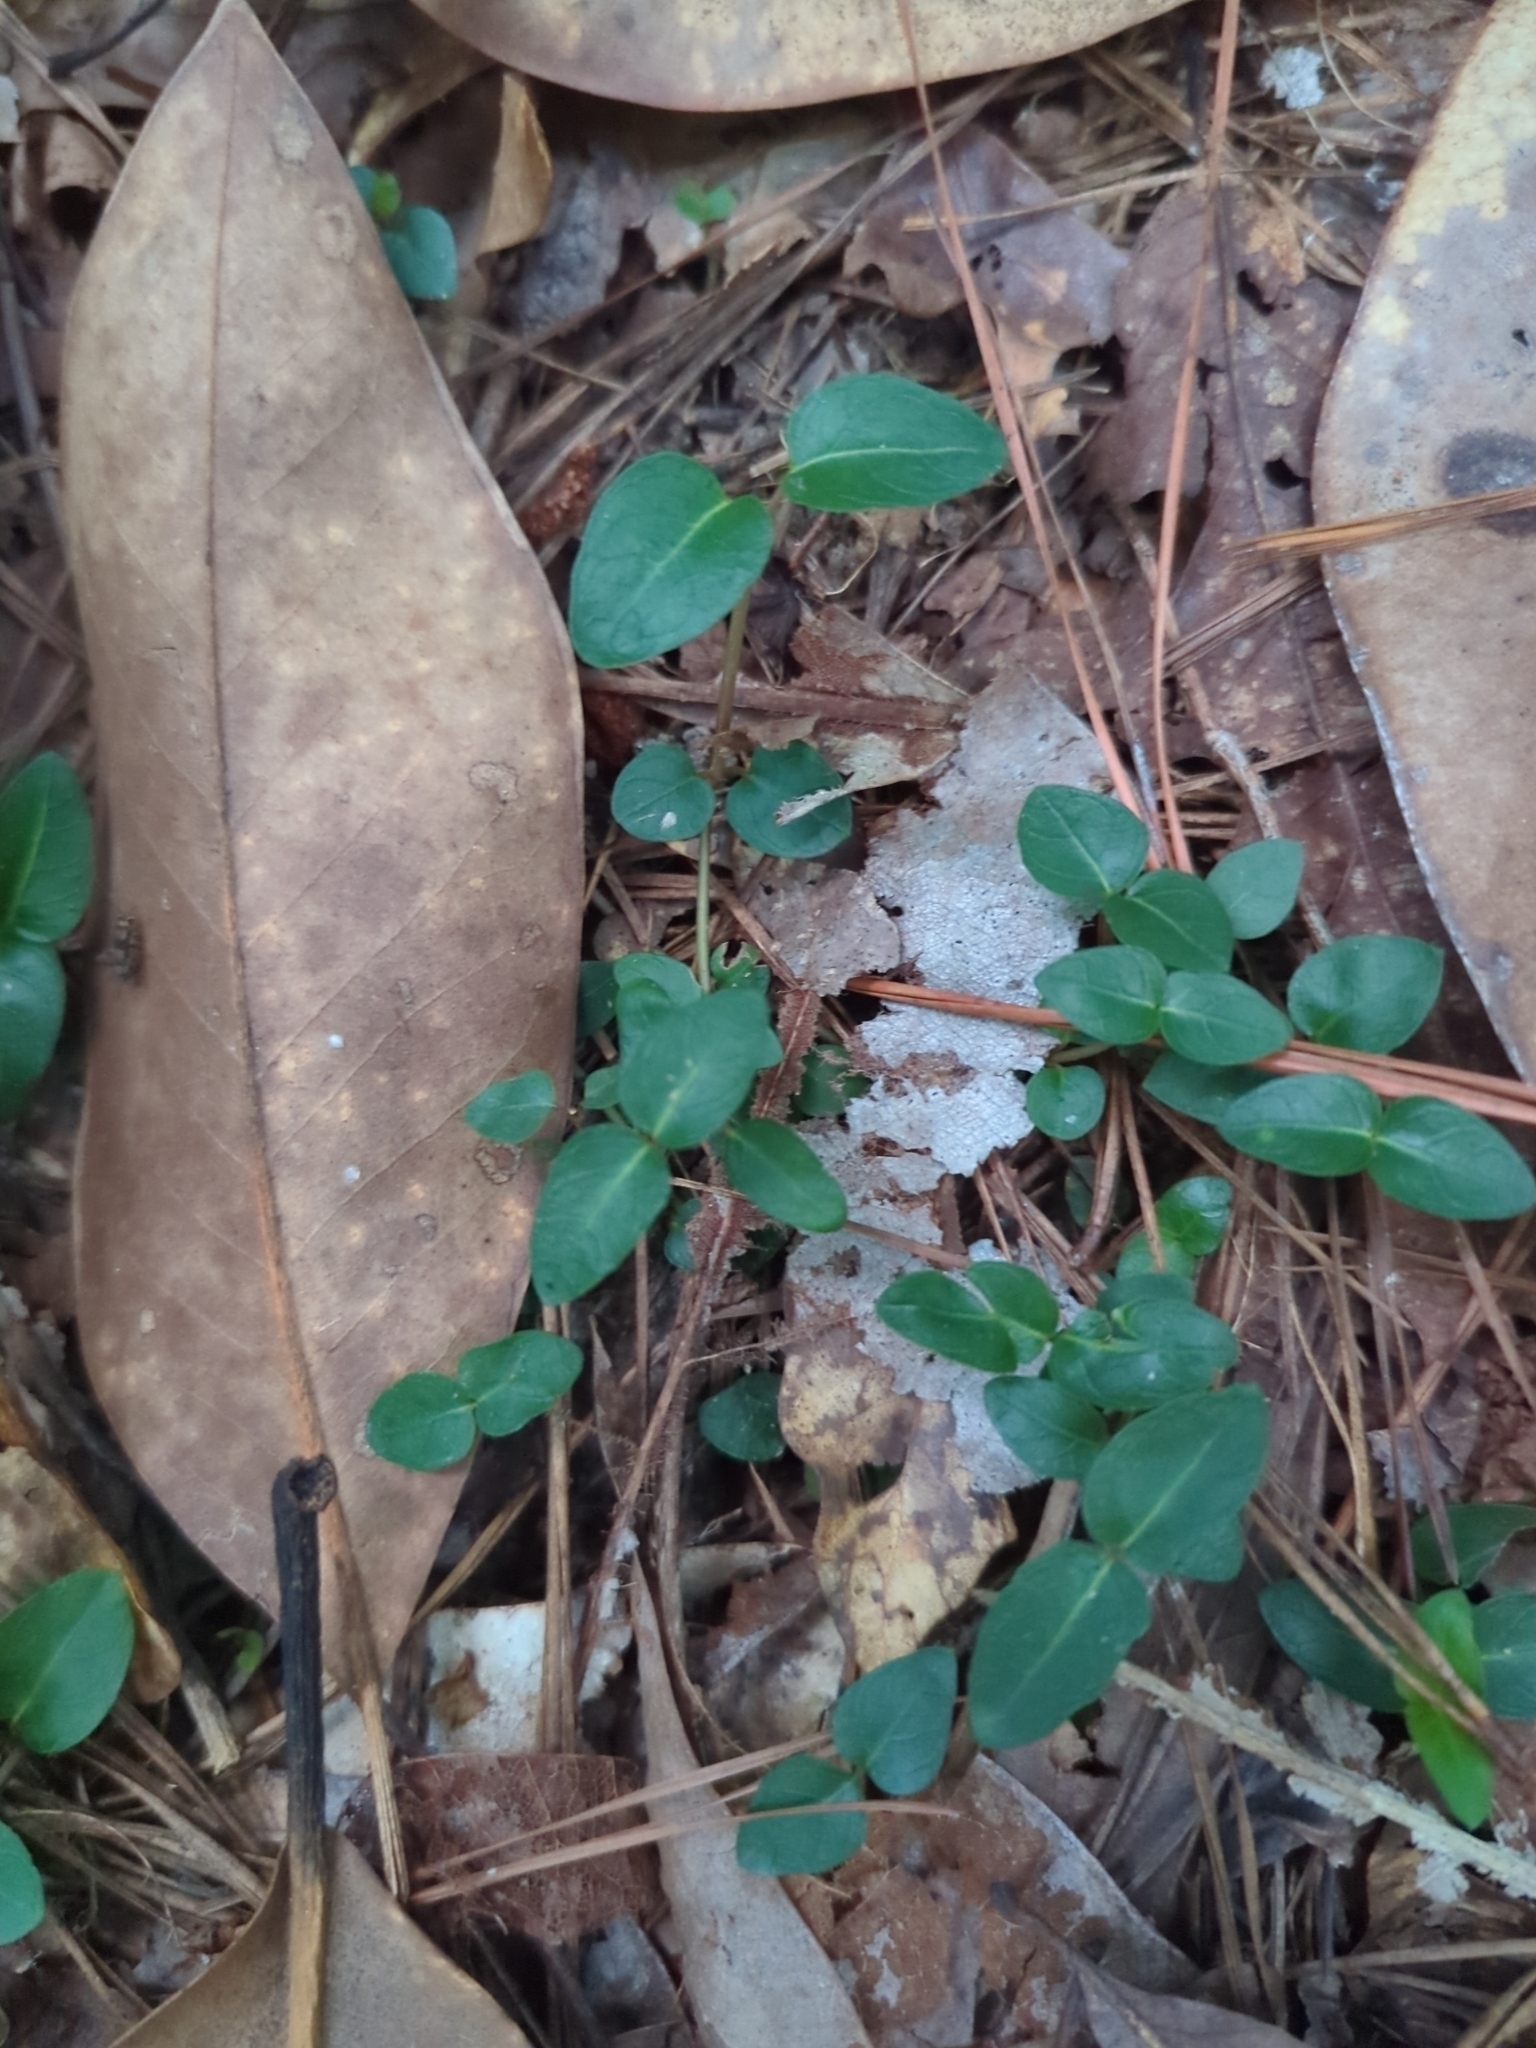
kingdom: Plantae
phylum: Tracheophyta
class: Magnoliopsida
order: Gentianales
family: Rubiaceae
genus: Mitchella
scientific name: Mitchella repens
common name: Partridge-berry
